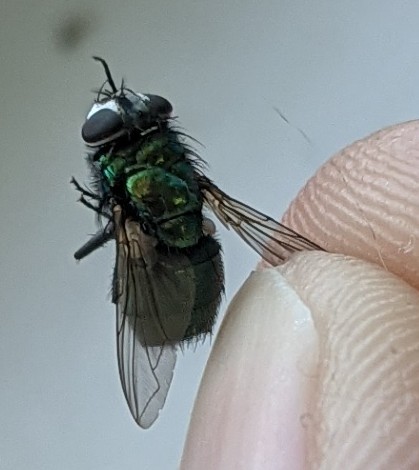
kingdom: Animalia
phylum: Arthropoda
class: Insecta
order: Diptera
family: Calliphoridae
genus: Lucilia
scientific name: Lucilia sericata
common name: Blow fly
